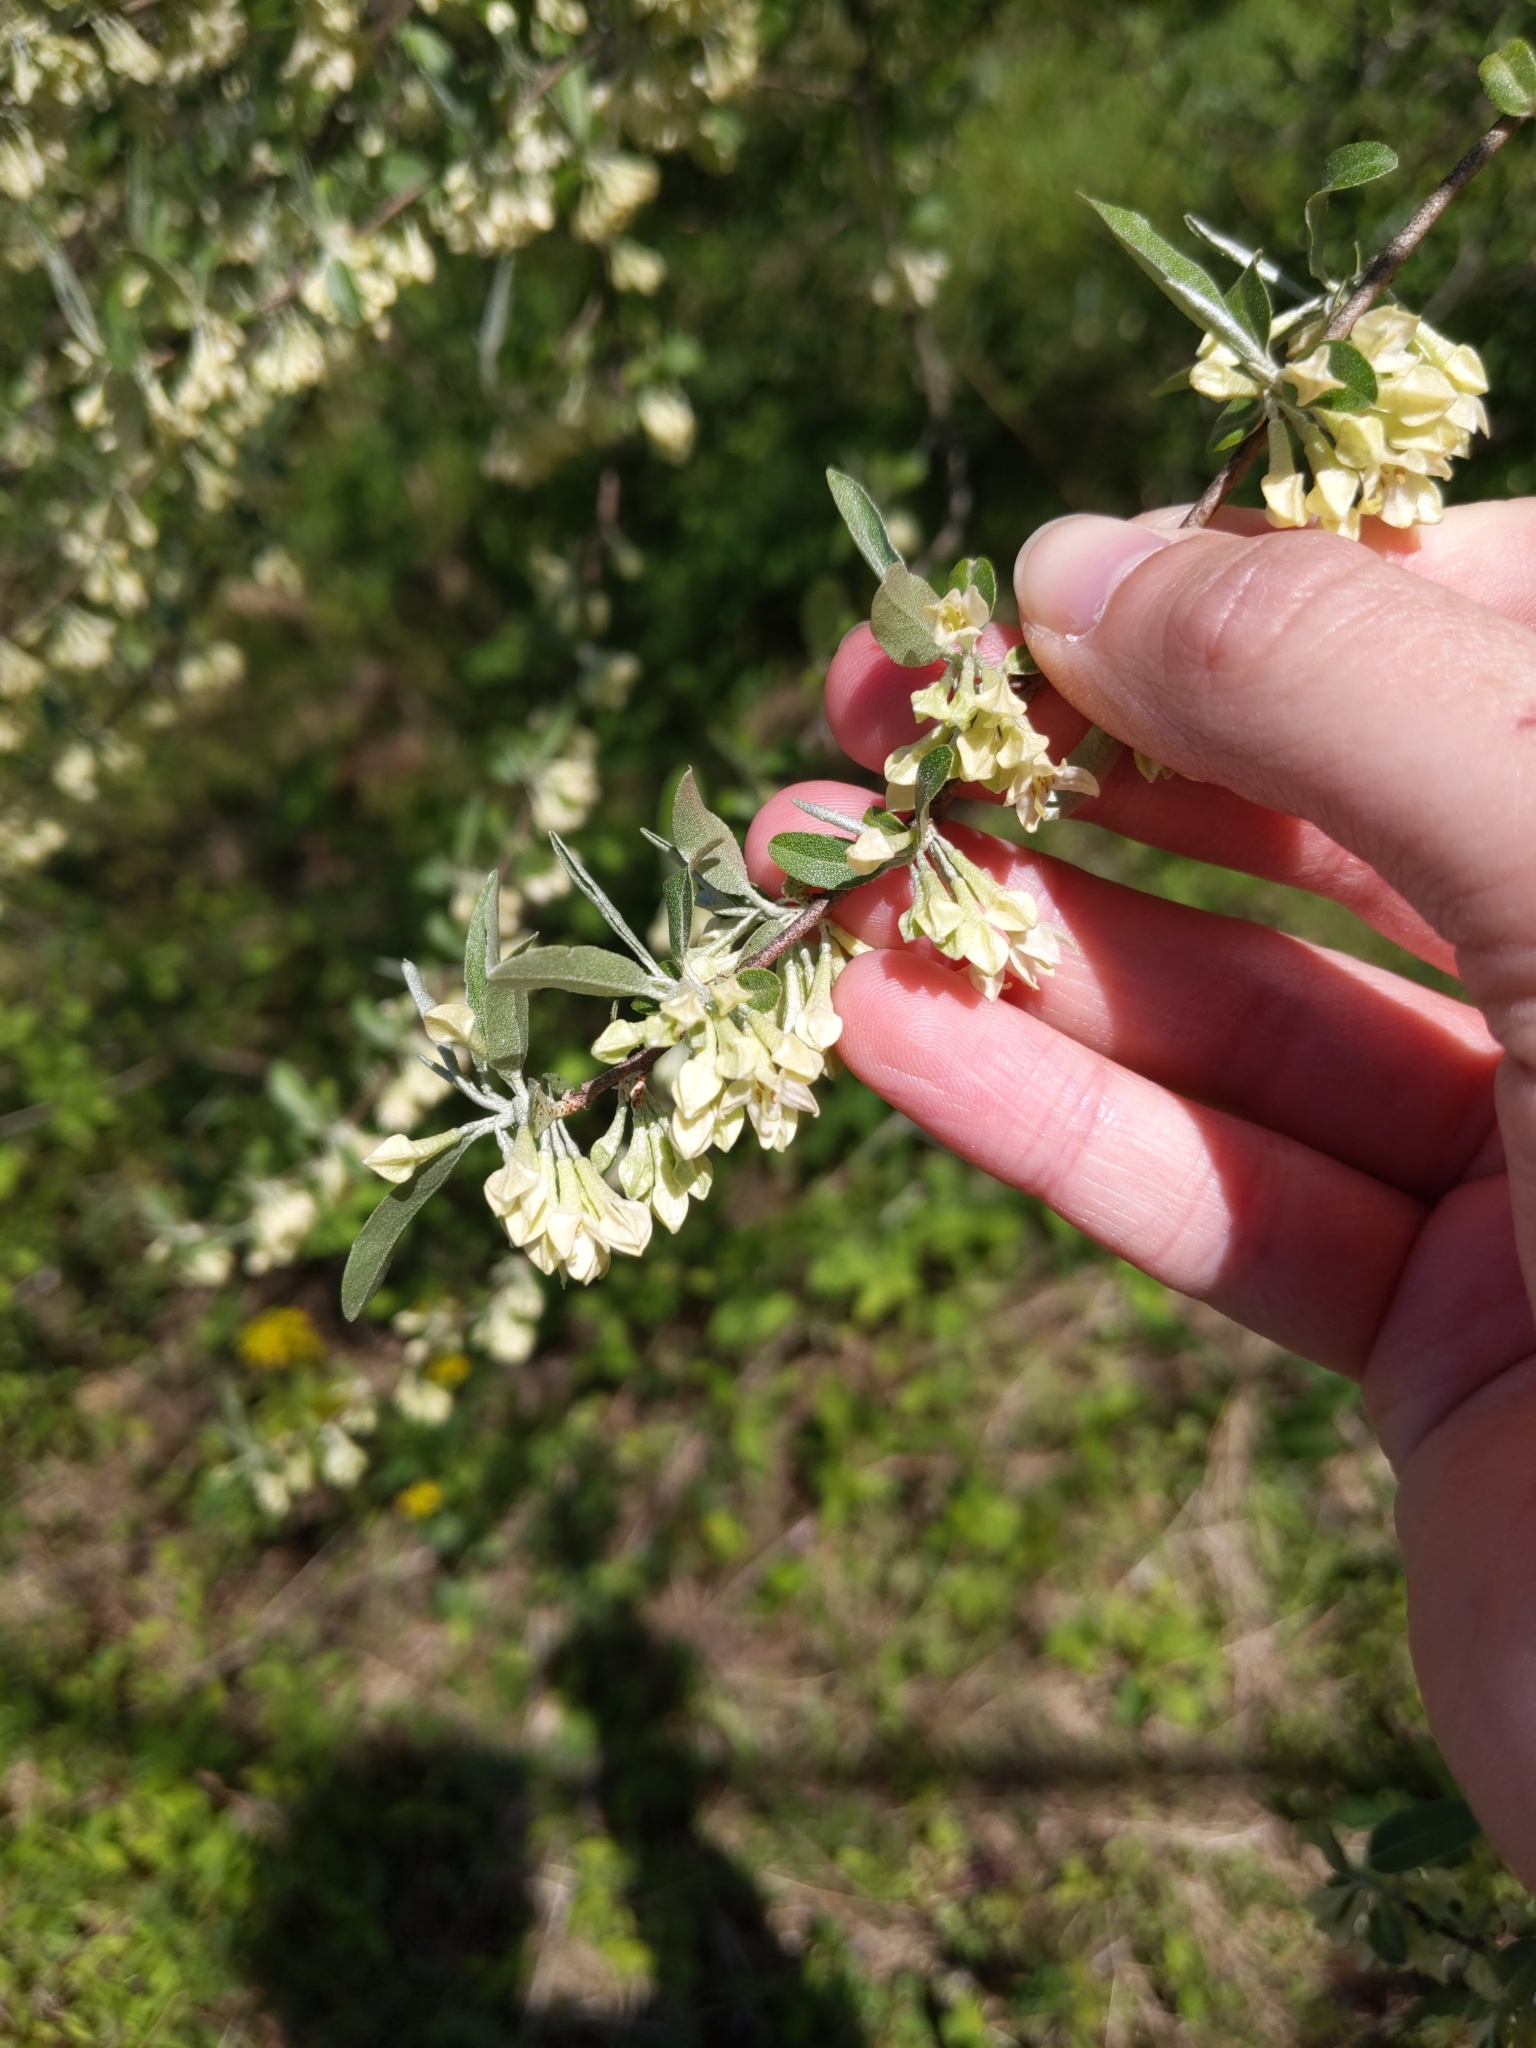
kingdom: Plantae
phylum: Tracheophyta
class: Magnoliopsida
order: Rosales
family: Elaeagnaceae
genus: Elaeagnus
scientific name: Elaeagnus umbellata
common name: Autumn olive
